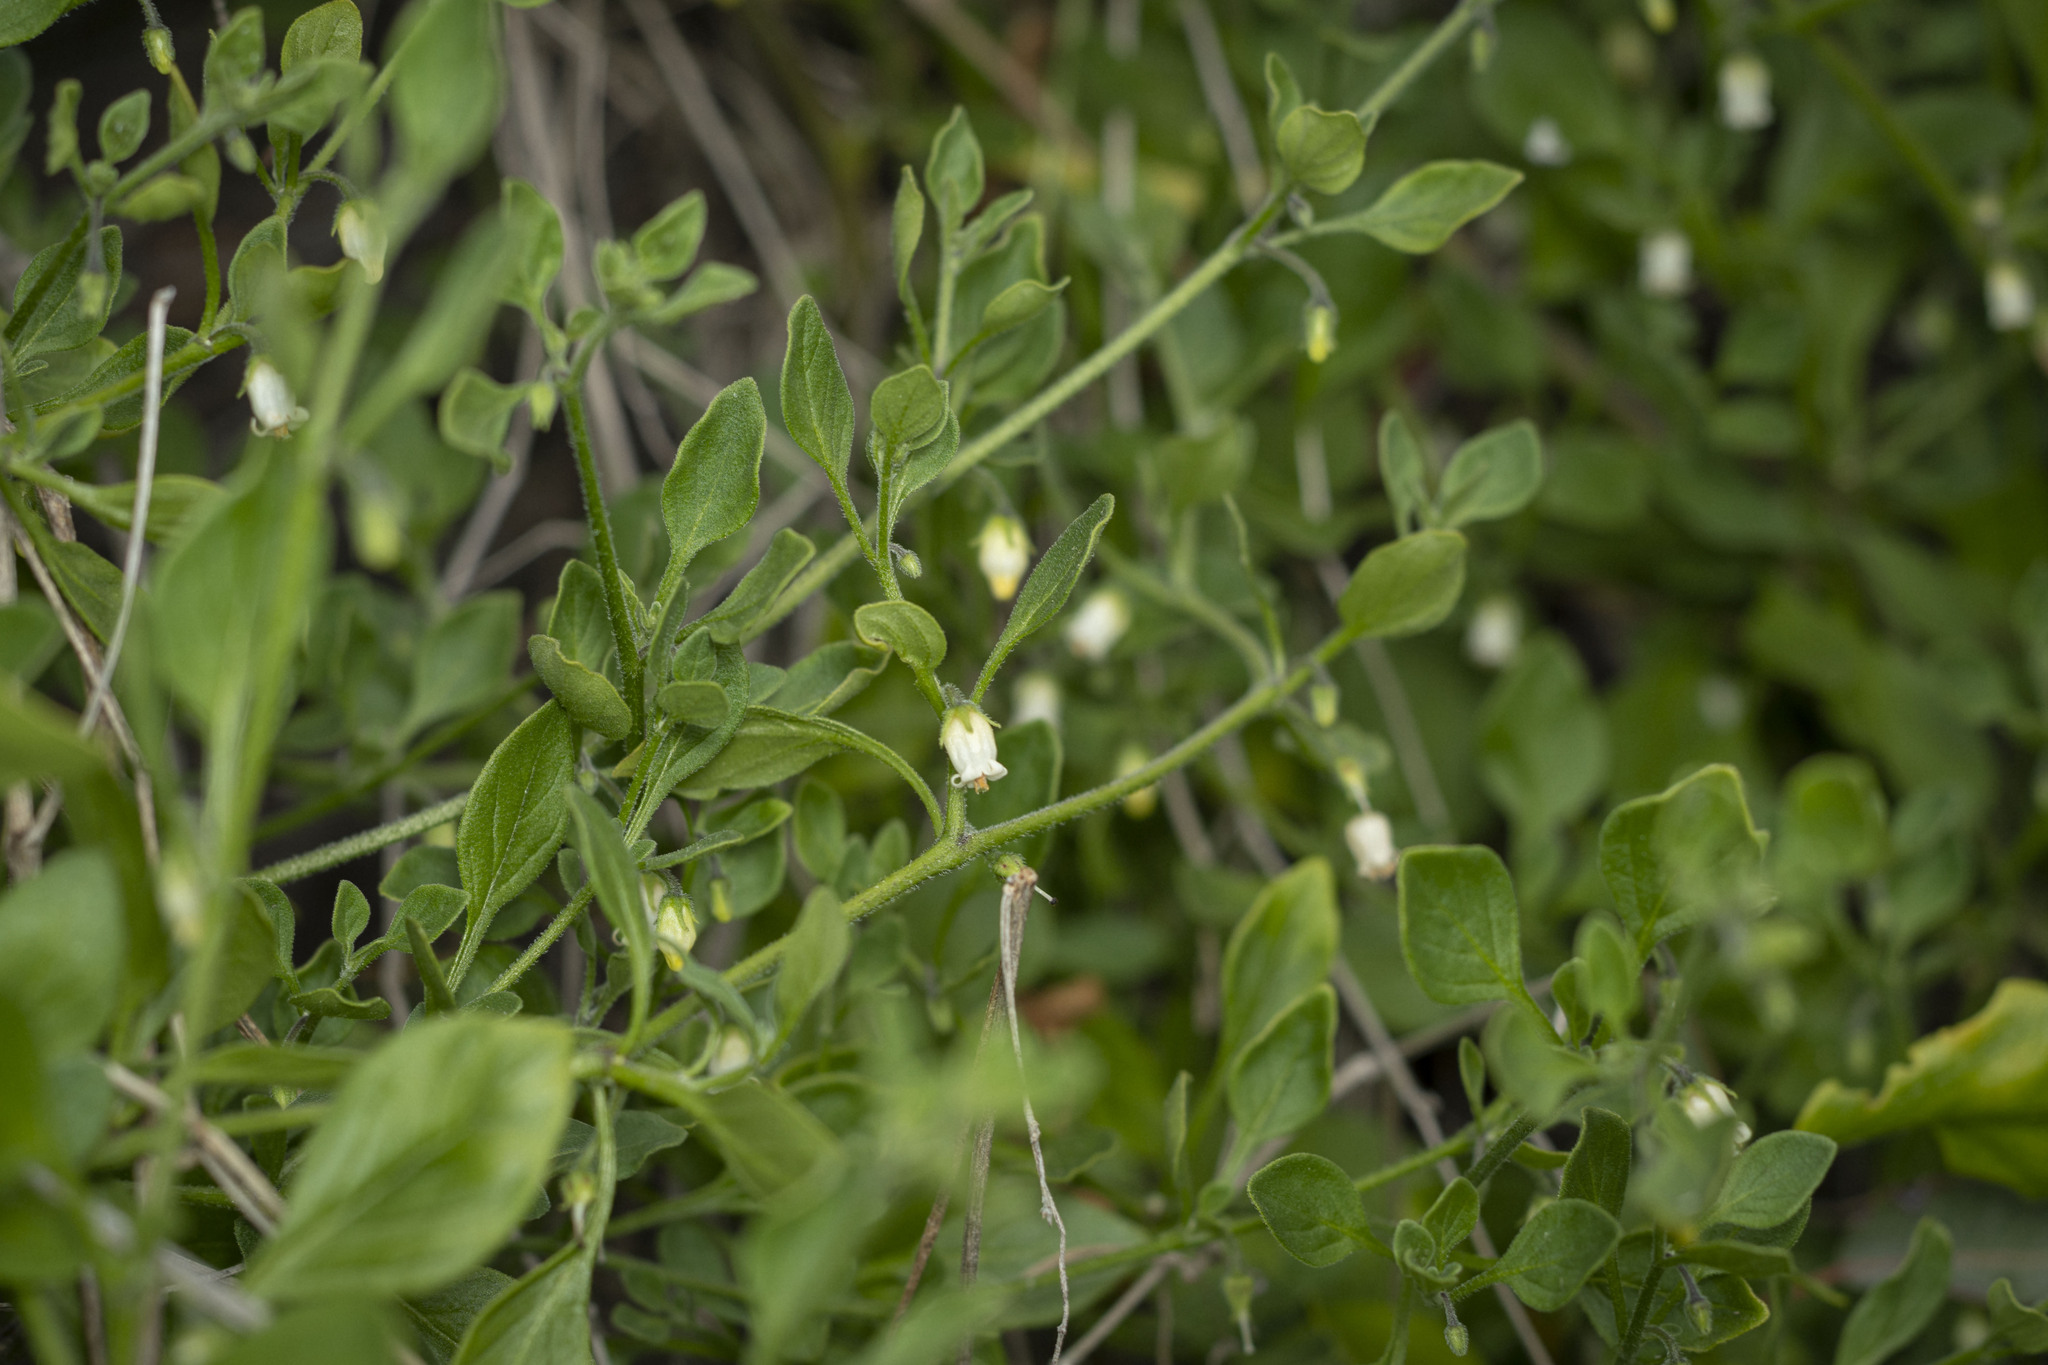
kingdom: Plantae
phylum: Tracheophyta
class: Magnoliopsida
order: Solanales
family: Solanaceae
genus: Salpichroa
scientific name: Salpichroa origanifolia
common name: Lily-of-the-valley-vine
